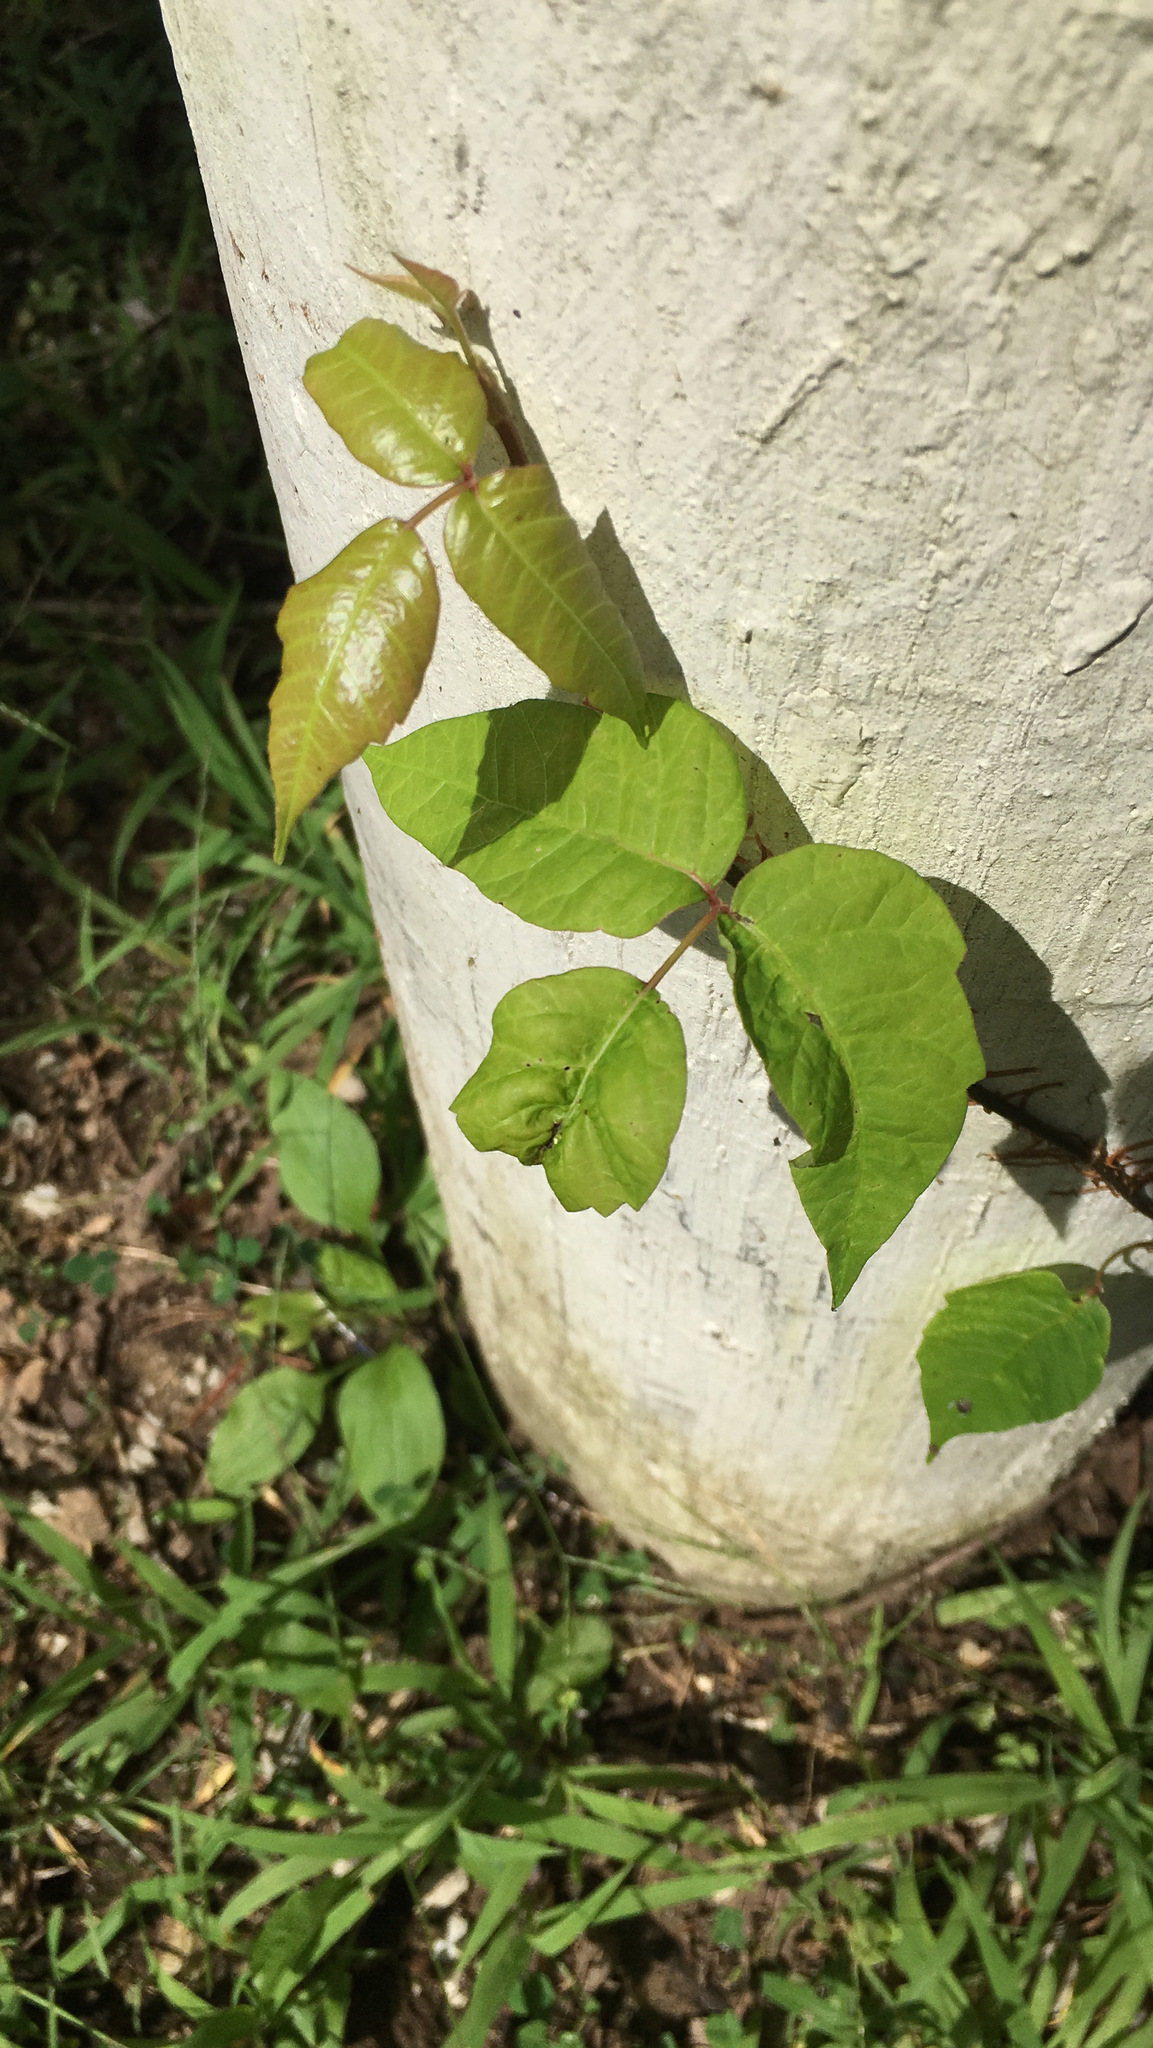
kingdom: Plantae
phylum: Tracheophyta
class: Magnoliopsida
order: Sapindales
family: Anacardiaceae
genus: Toxicodendron
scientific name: Toxicodendron radicans
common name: Poison ivy
